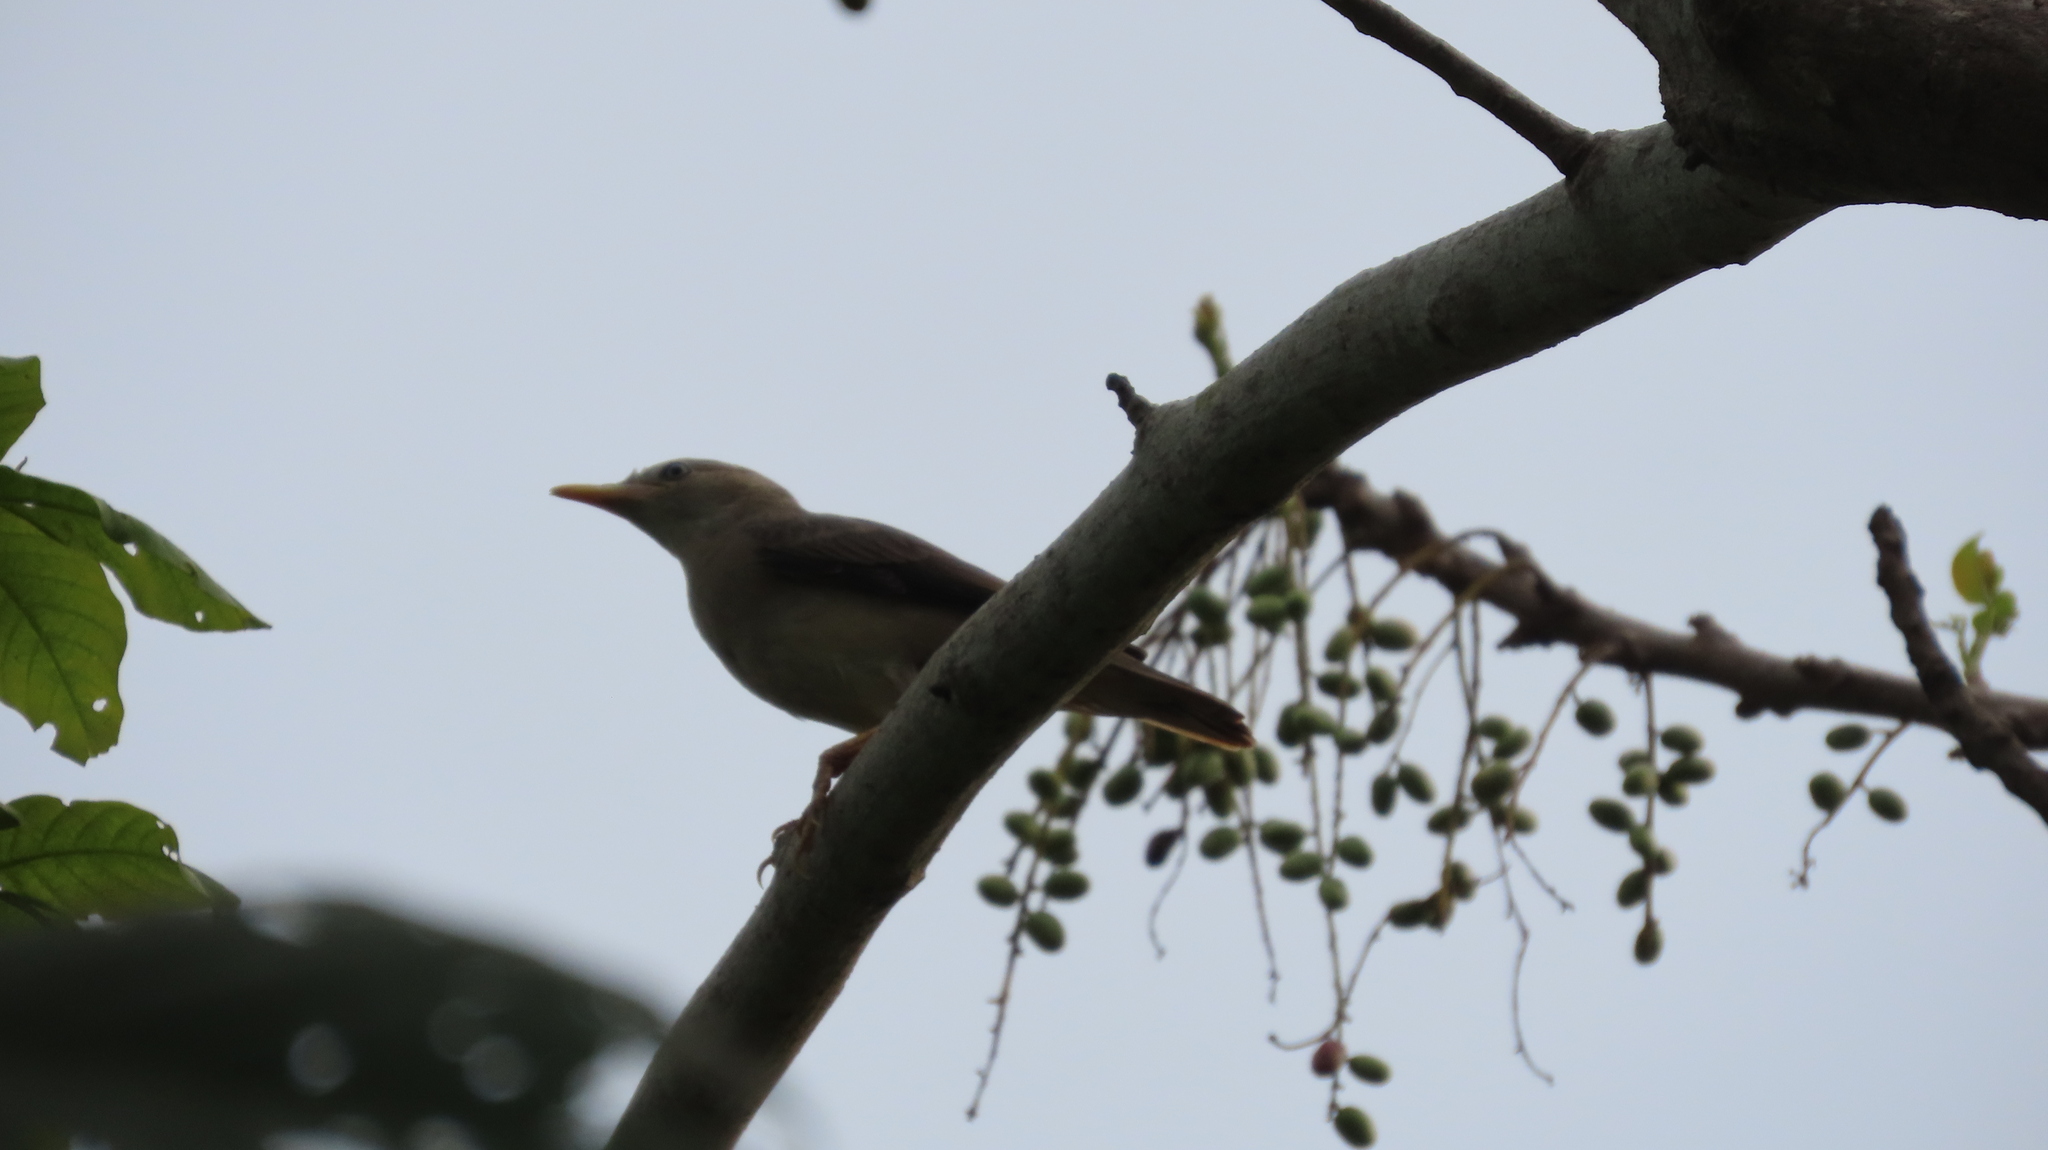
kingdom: Animalia
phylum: Chordata
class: Aves
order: Passeriformes
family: Sturnidae
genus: Sturnia
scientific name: Sturnia blythii
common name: Malabar starling
